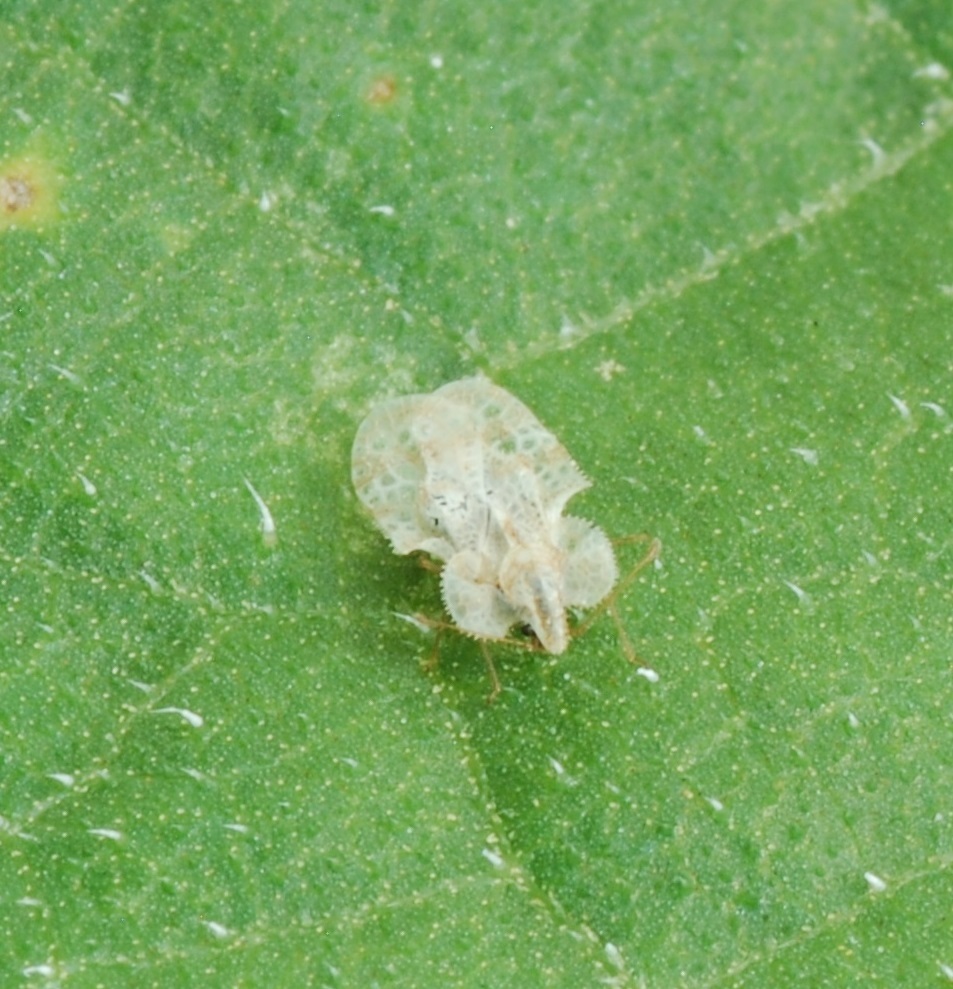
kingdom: Animalia
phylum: Arthropoda
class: Insecta
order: Hemiptera
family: Tingidae
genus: Corythucha
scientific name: Corythucha marmorata
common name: Chrysanthemum lace bug
